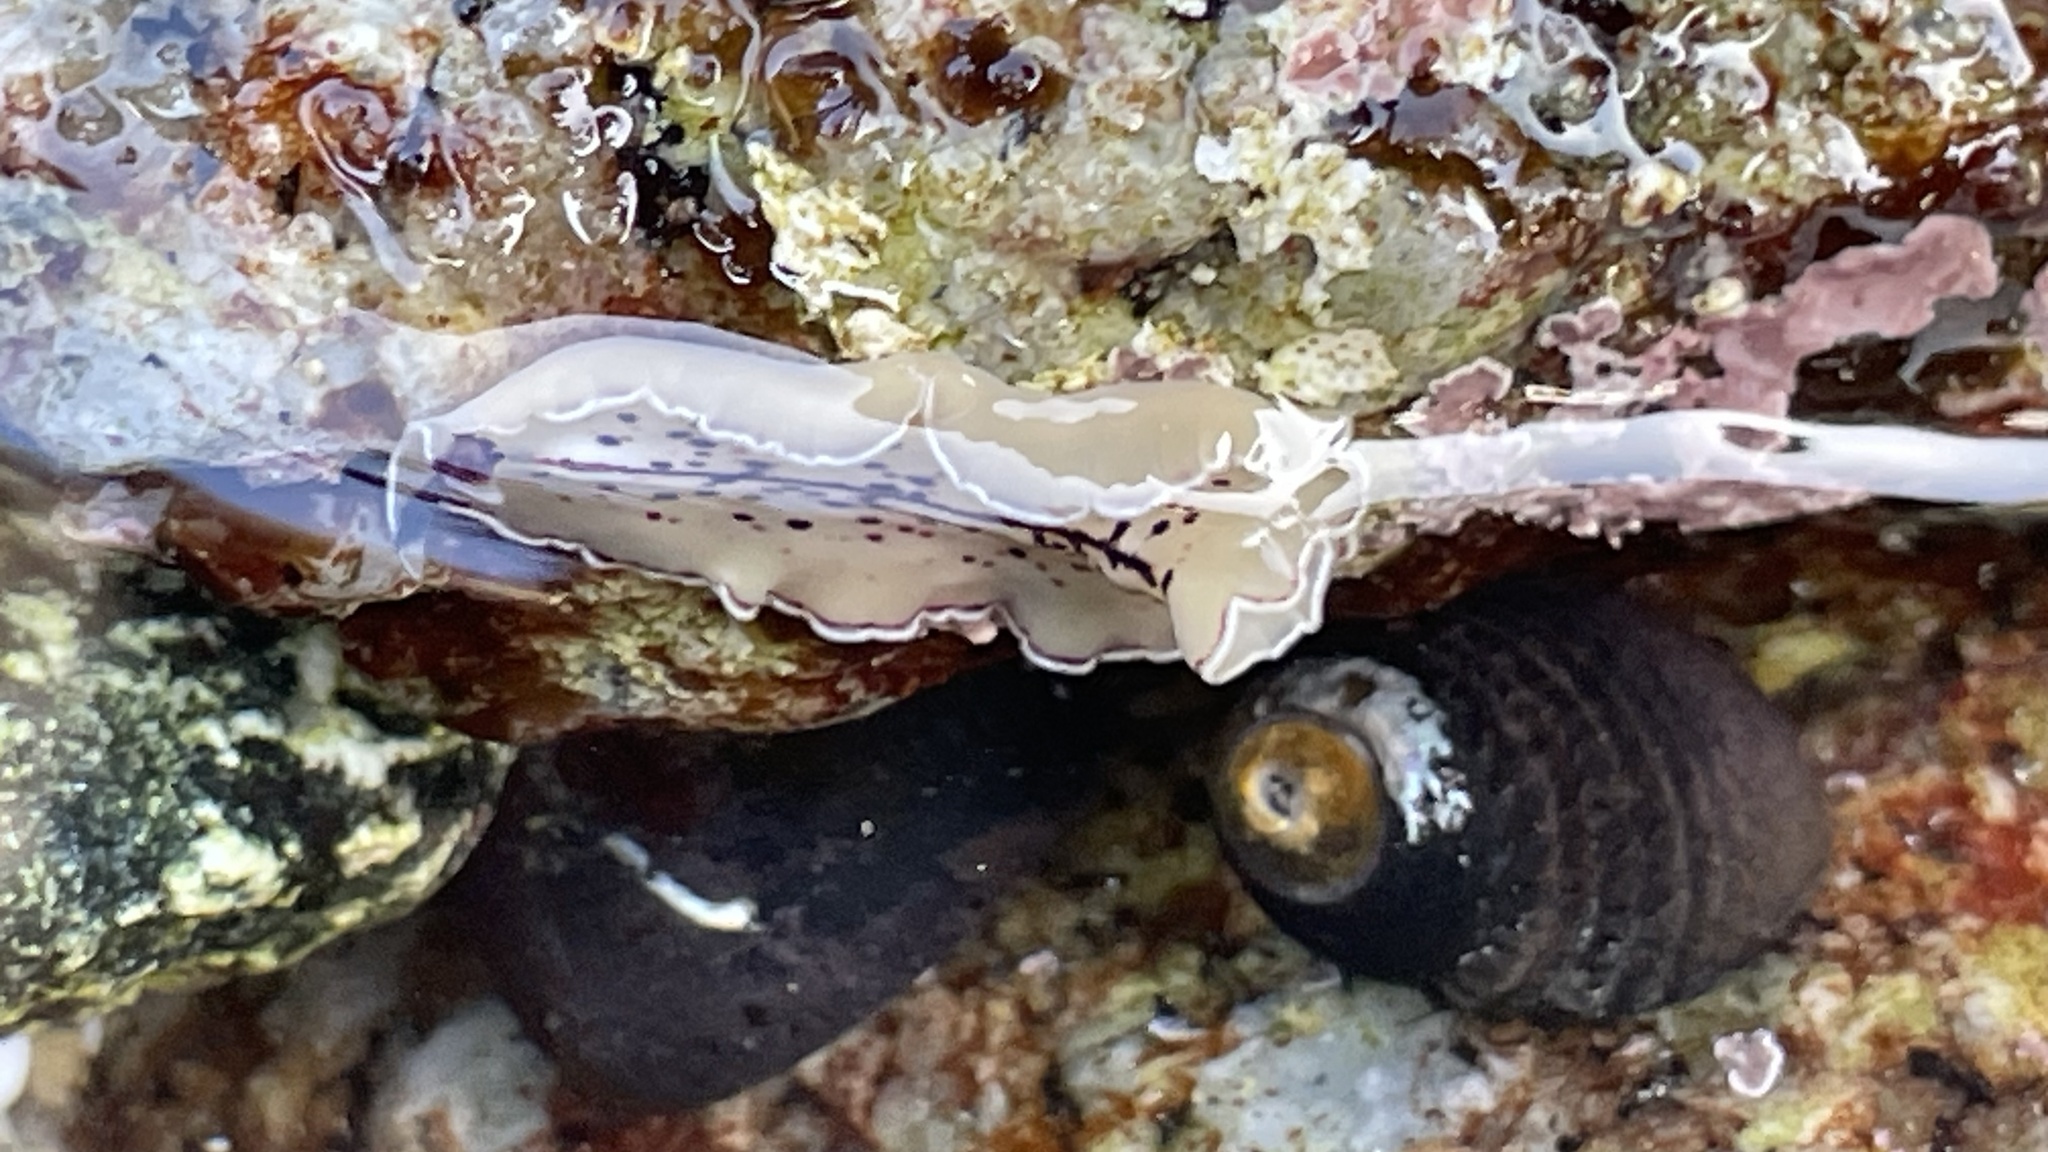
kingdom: Animalia
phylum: Platyhelminthes
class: Turbellaria
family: Pseudocerotidae
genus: Pseudoceros
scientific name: Pseudoceros montereyensis
